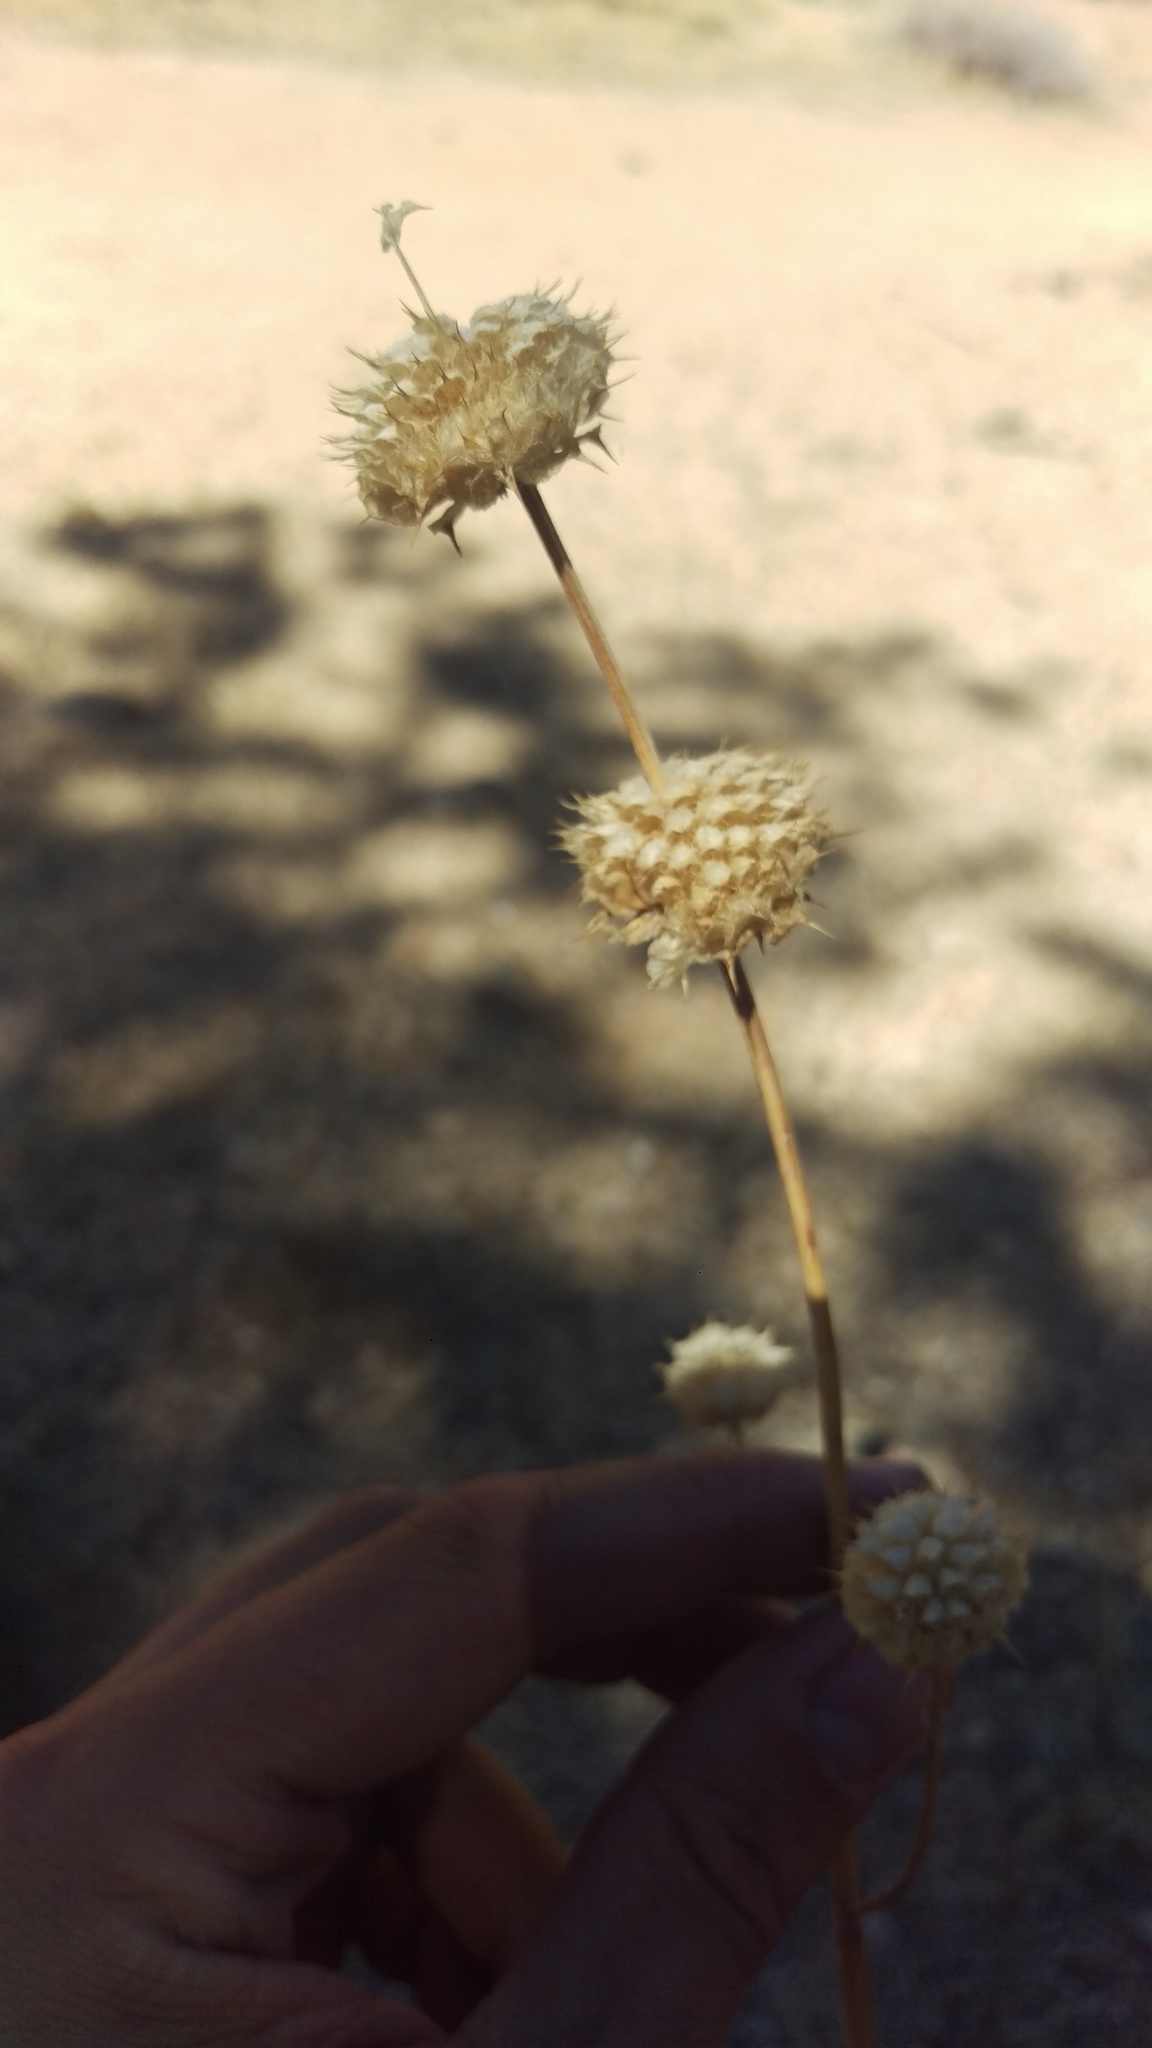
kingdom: Plantae
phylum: Tracheophyta
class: Magnoliopsida
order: Lamiales
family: Lamiaceae
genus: Salvia
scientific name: Salvia columbariae
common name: Chia
